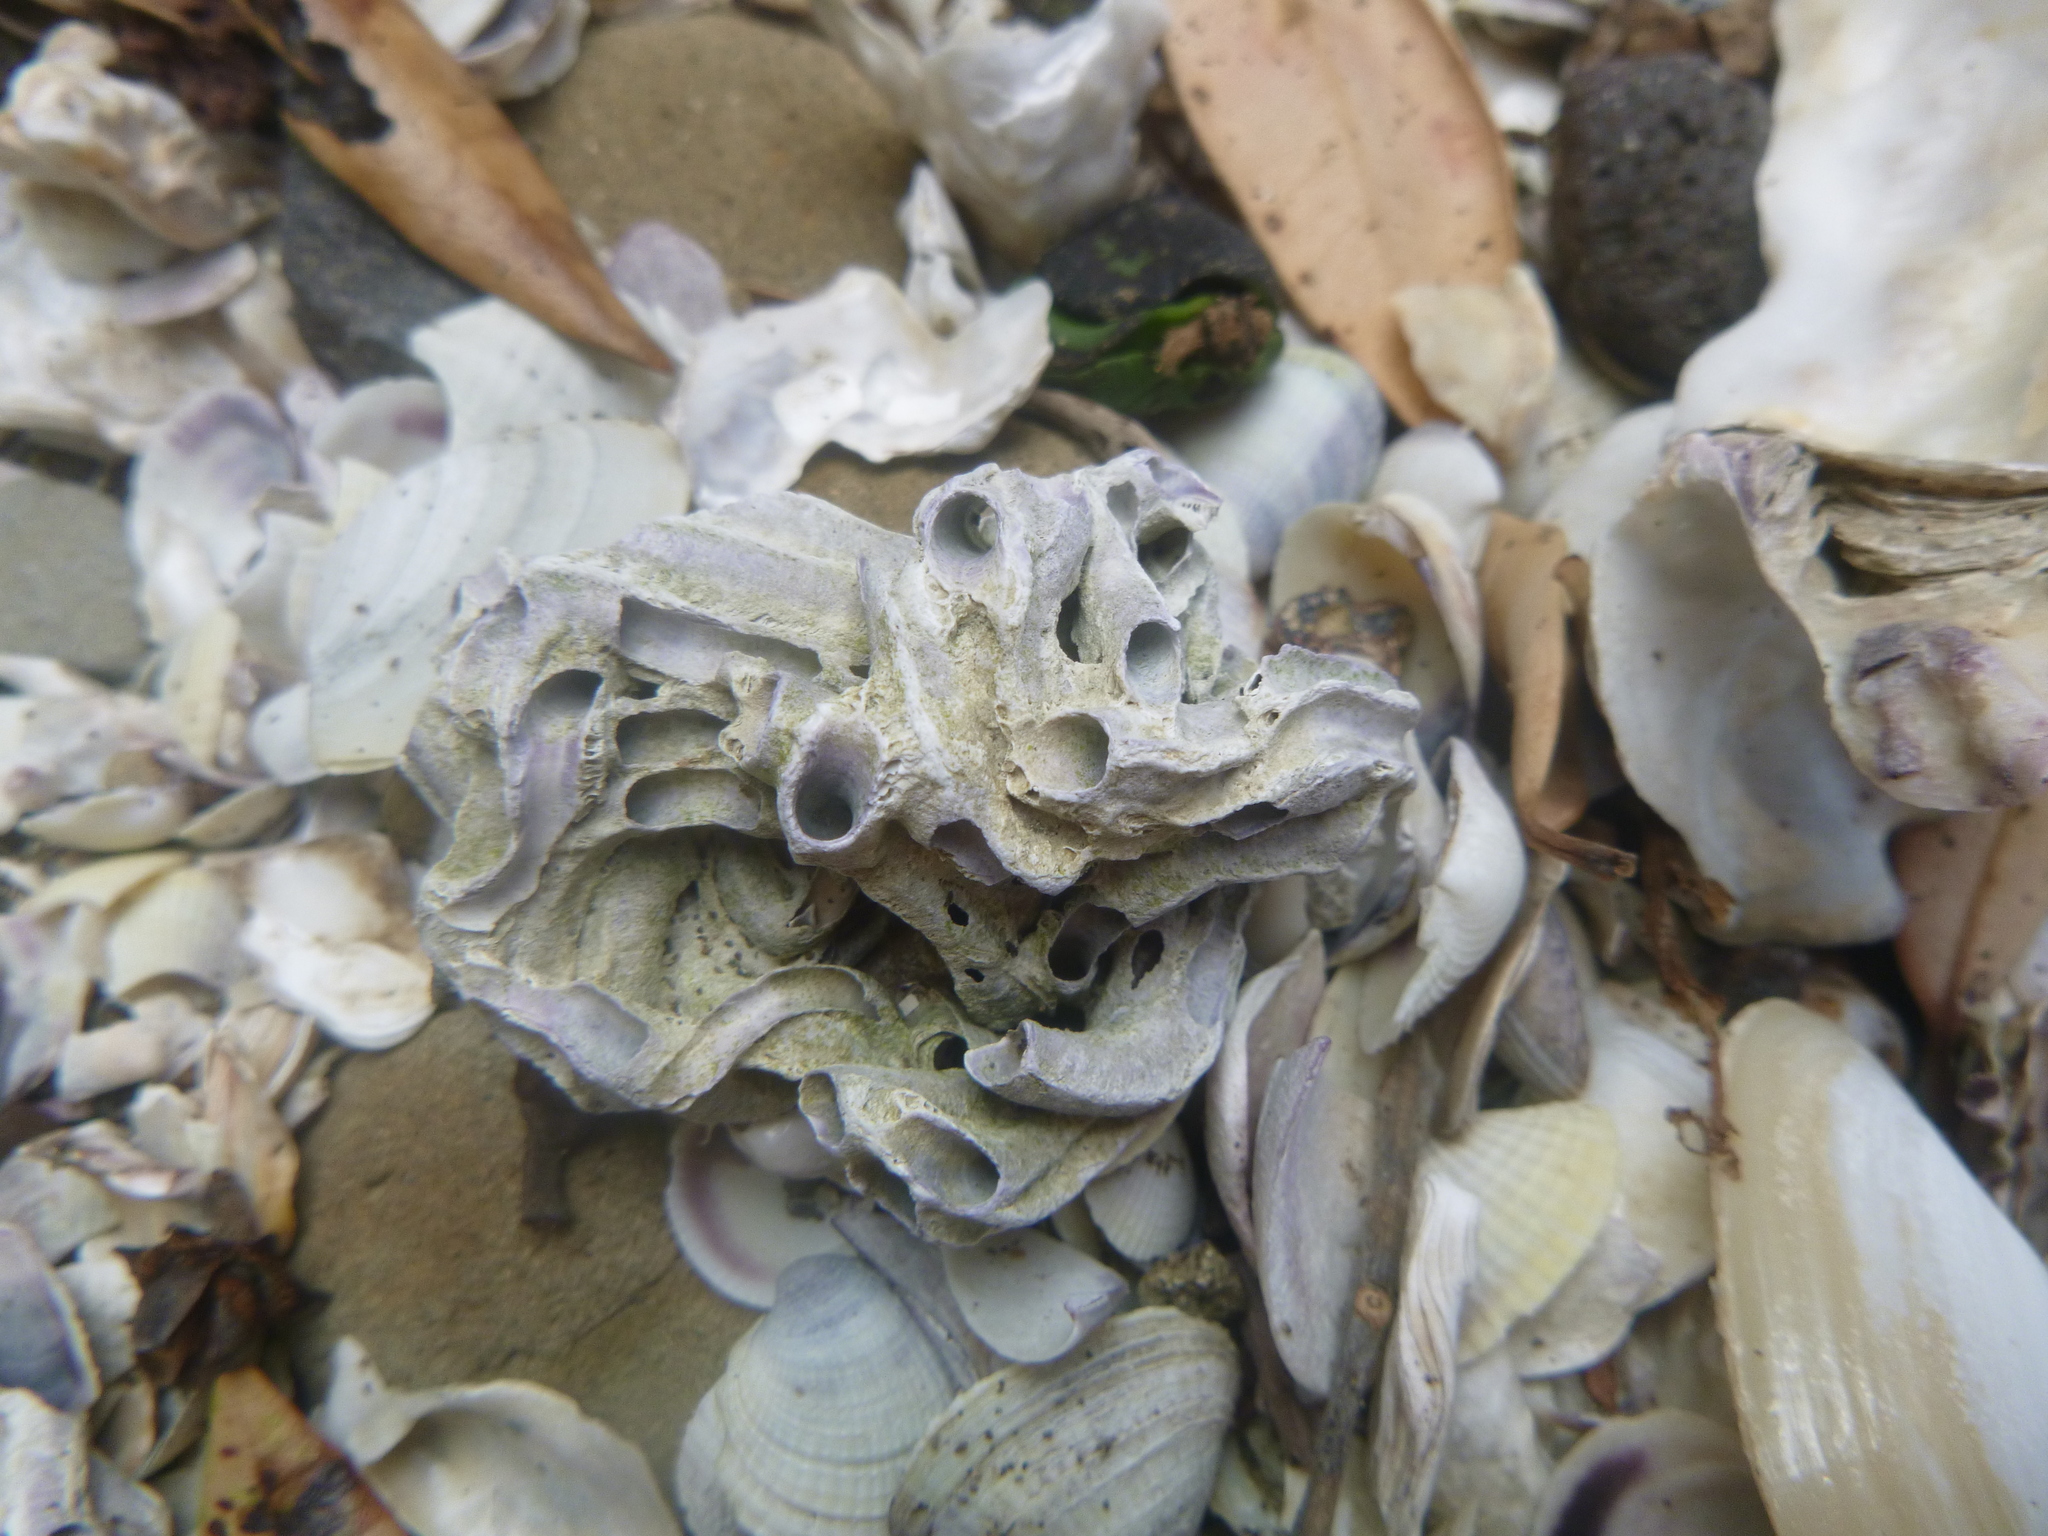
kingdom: Animalia
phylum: Annelida
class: Polychaeta
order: Sabellida
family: Serpulidae
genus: Spirobranchus
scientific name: Spirobranchus cariniferus
